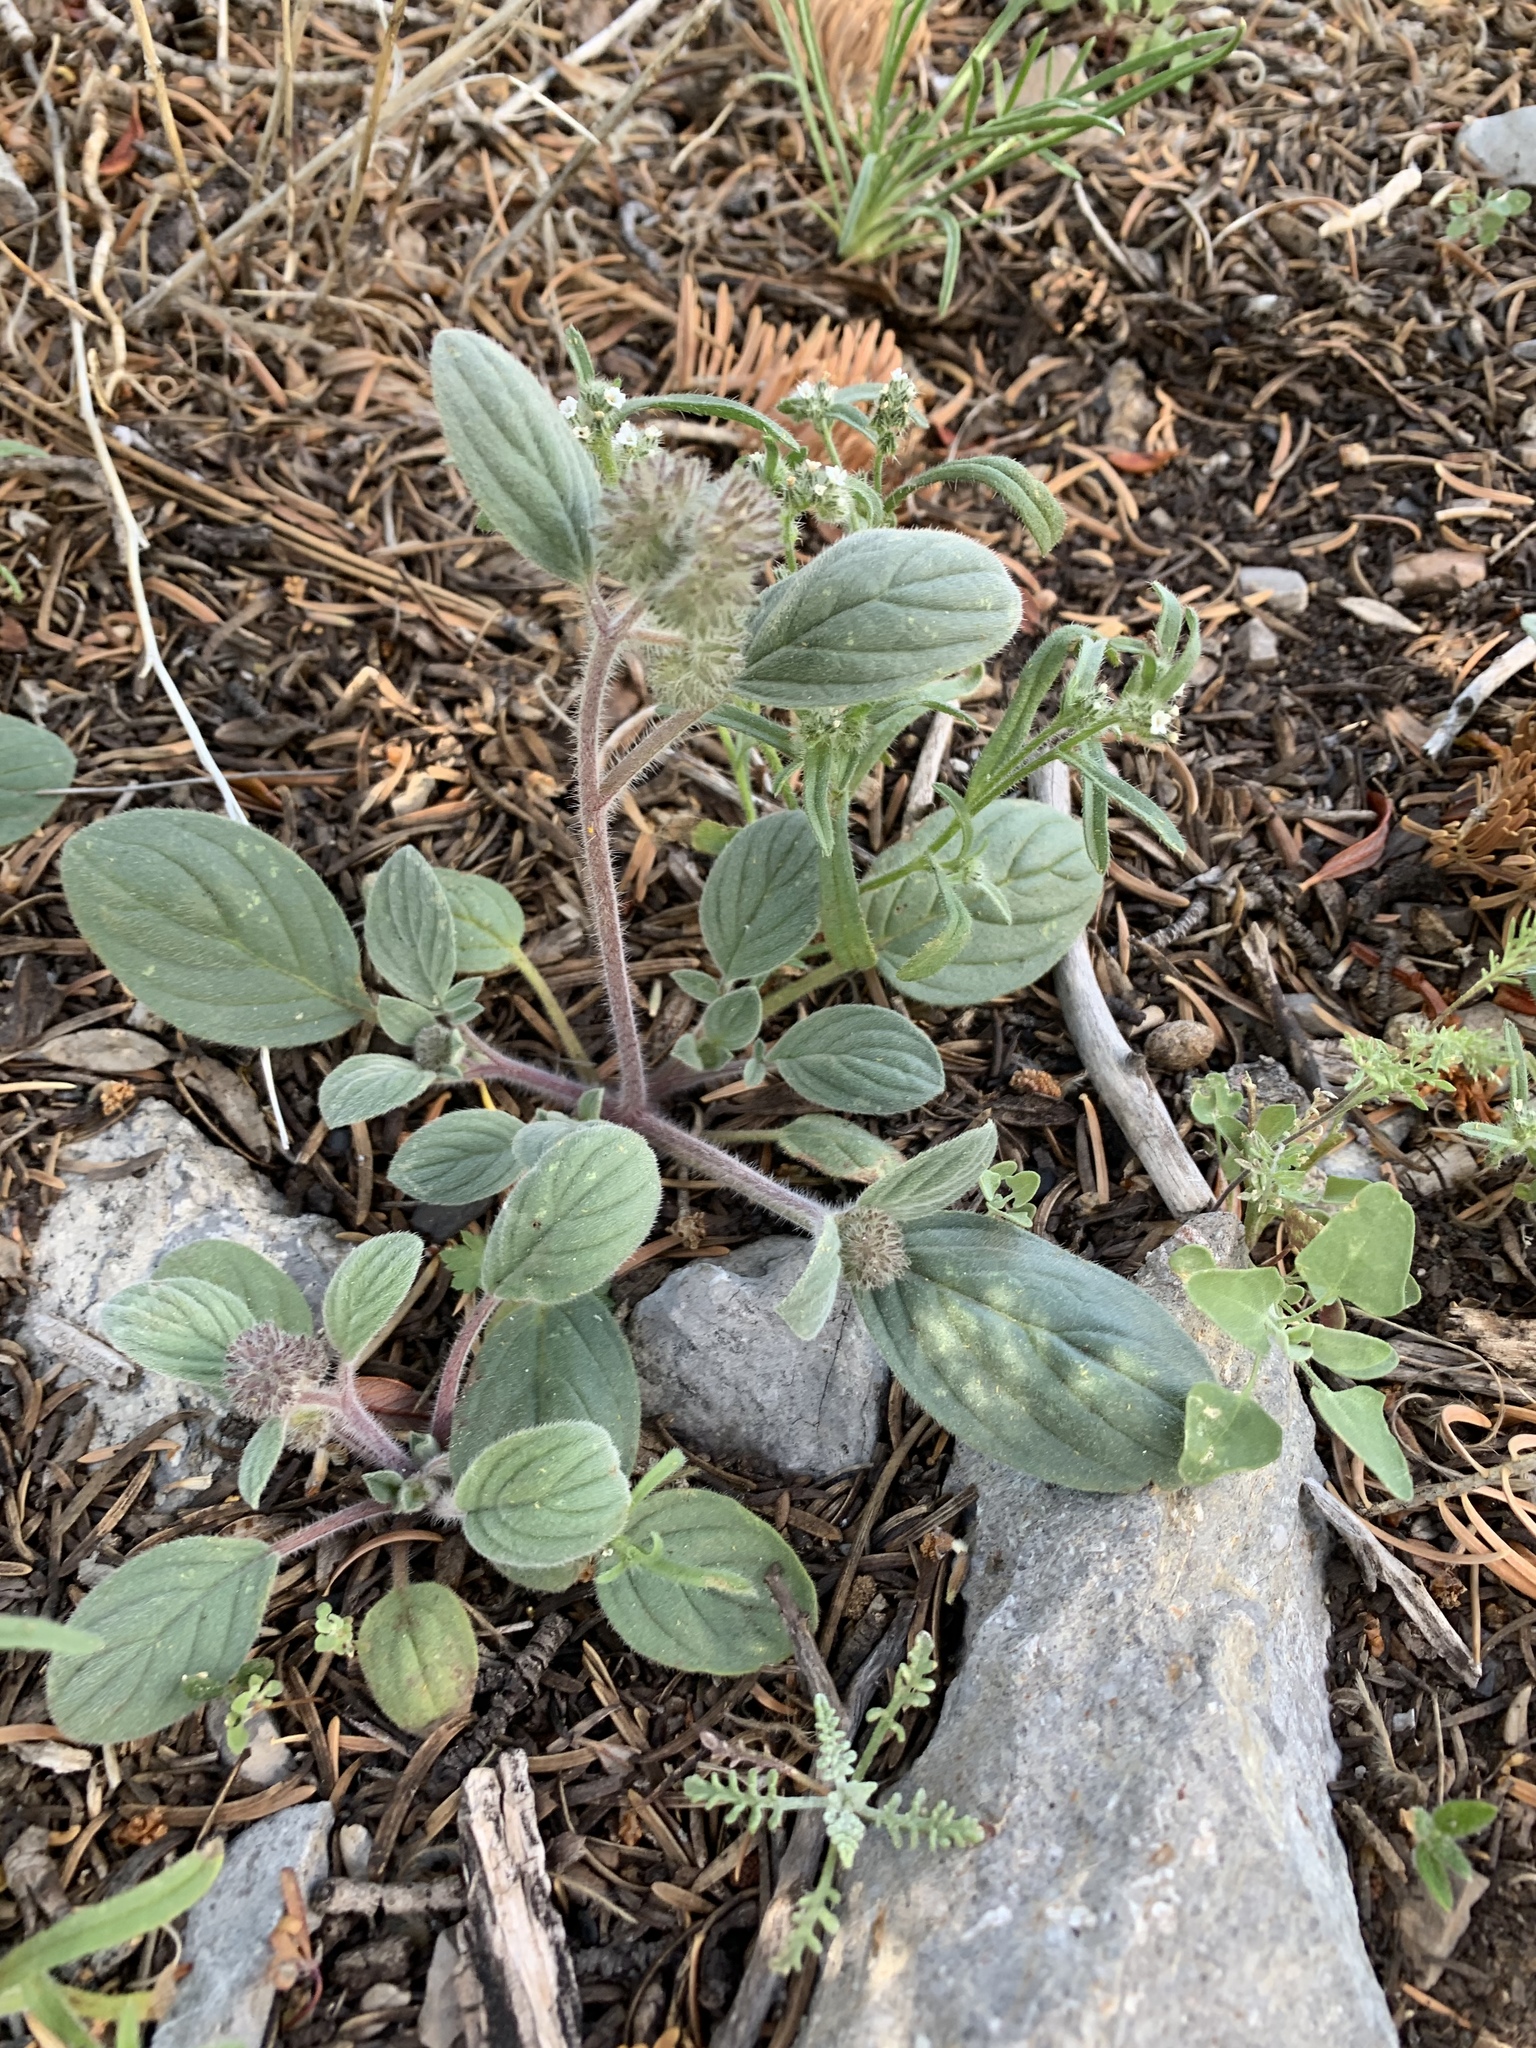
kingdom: Plantae
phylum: Tracheophyta
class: Magnoliopsida
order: Boraginales
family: Hydrophyllaceae
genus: Phacelia
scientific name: Phacelia hastata
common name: Silver-leaved phacelia
